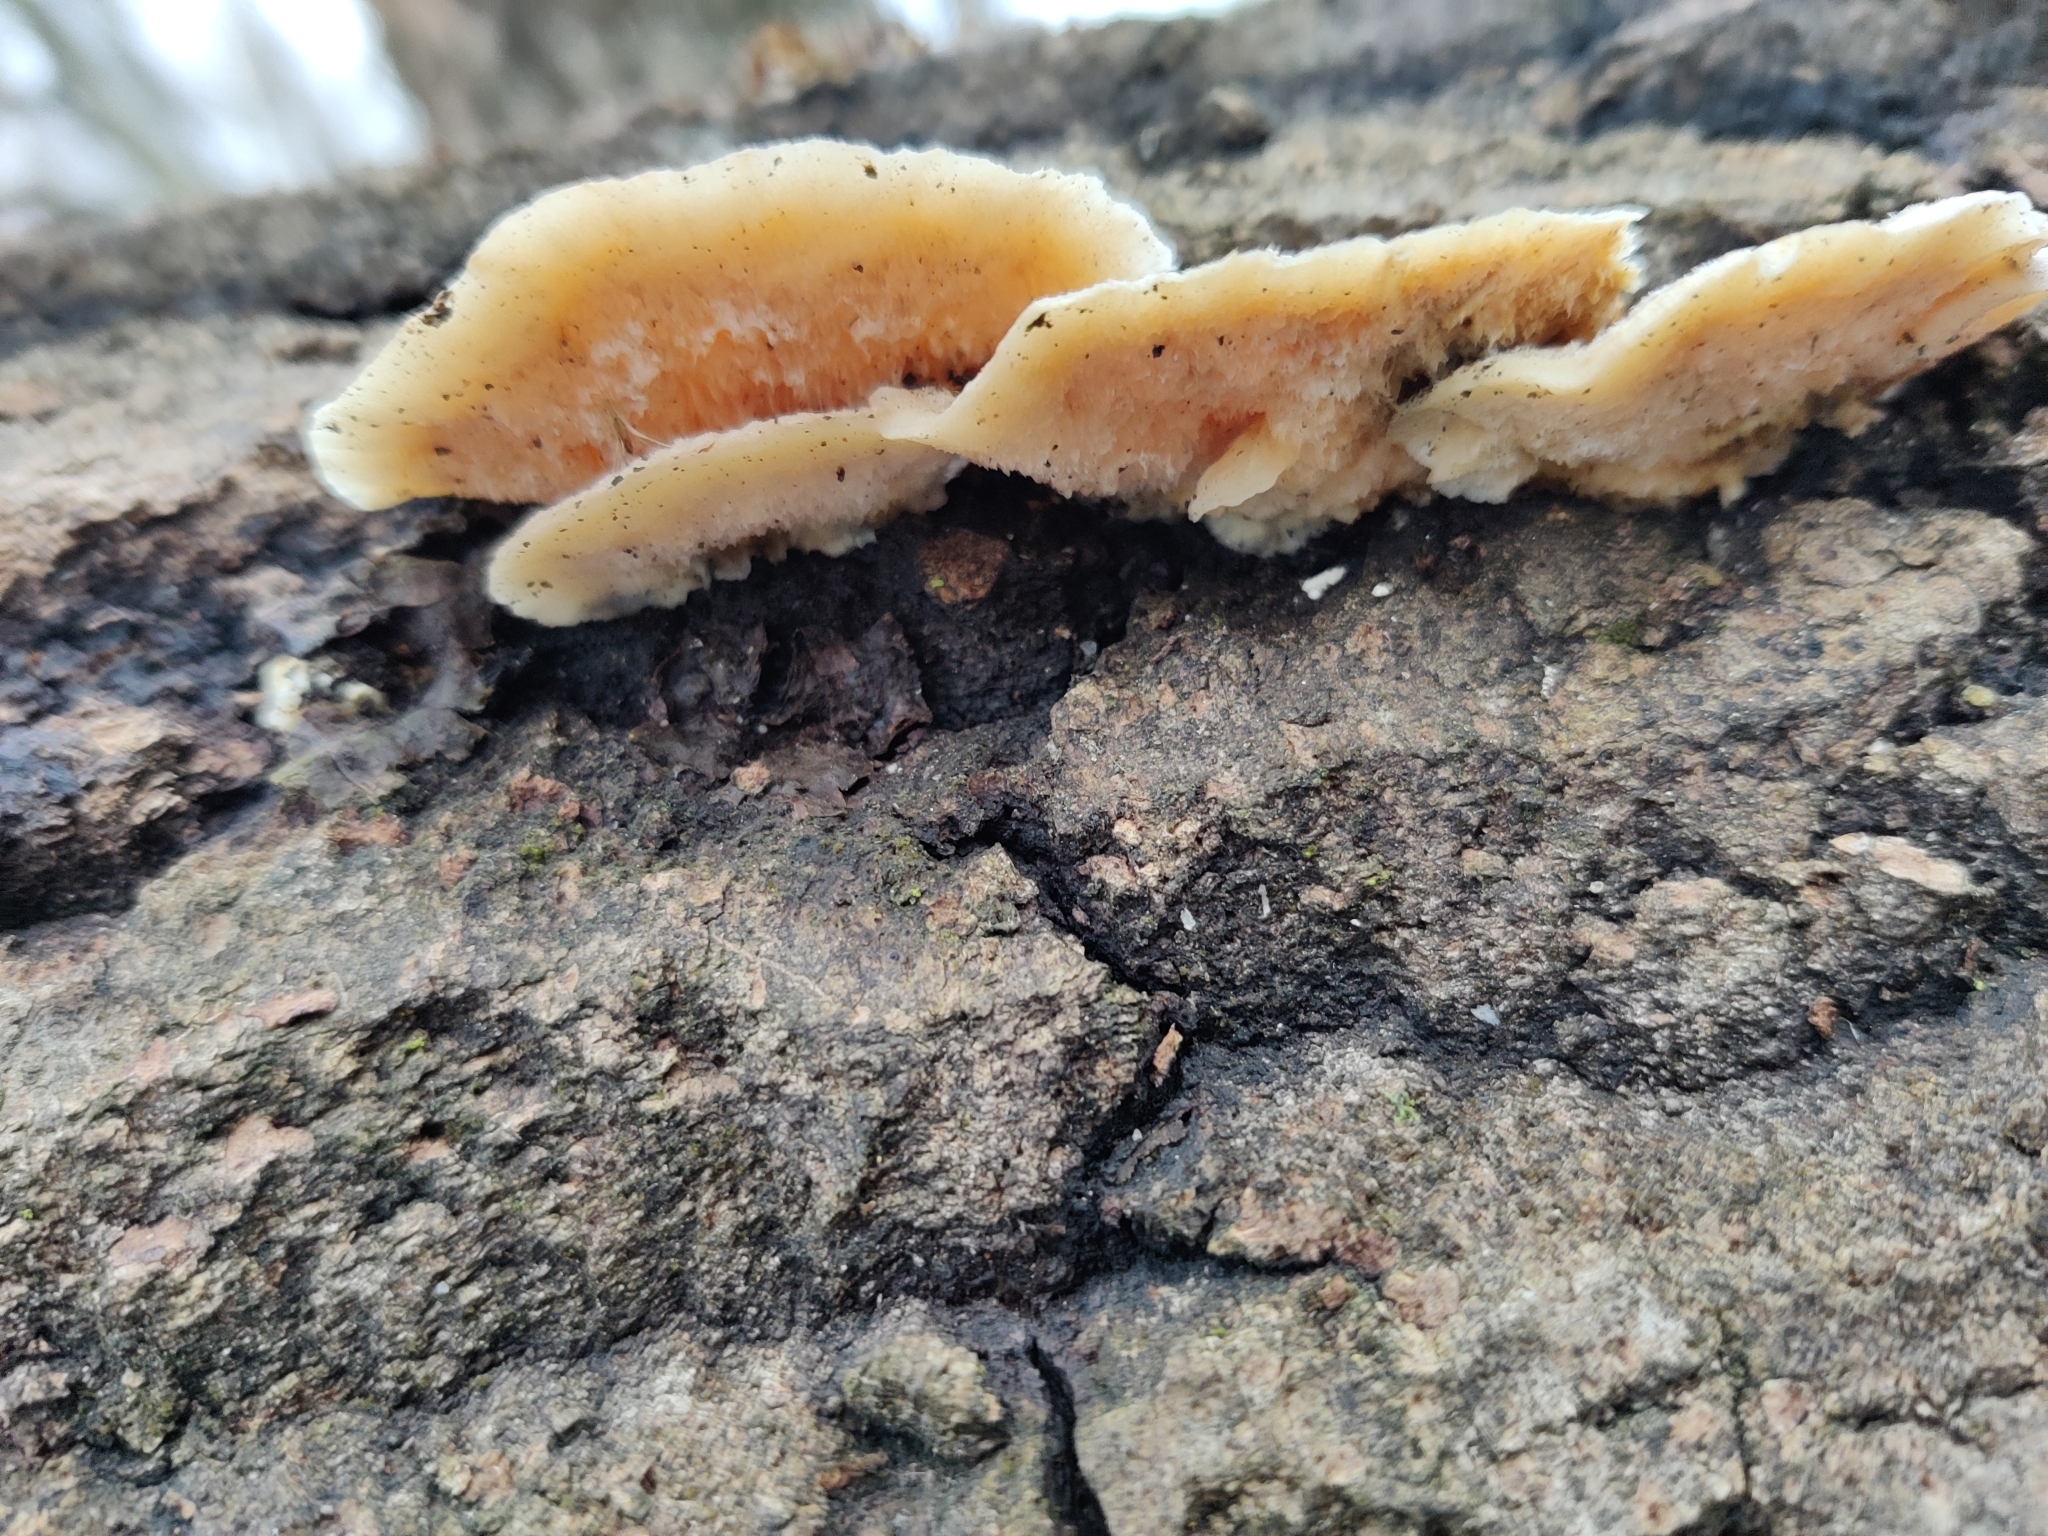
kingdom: Fungi
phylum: Basidiomycota
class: Agaricomycetes
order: Polyporales
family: Polyporaceae
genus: Trametes
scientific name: Trametes ochracea
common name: Ochre bracket
